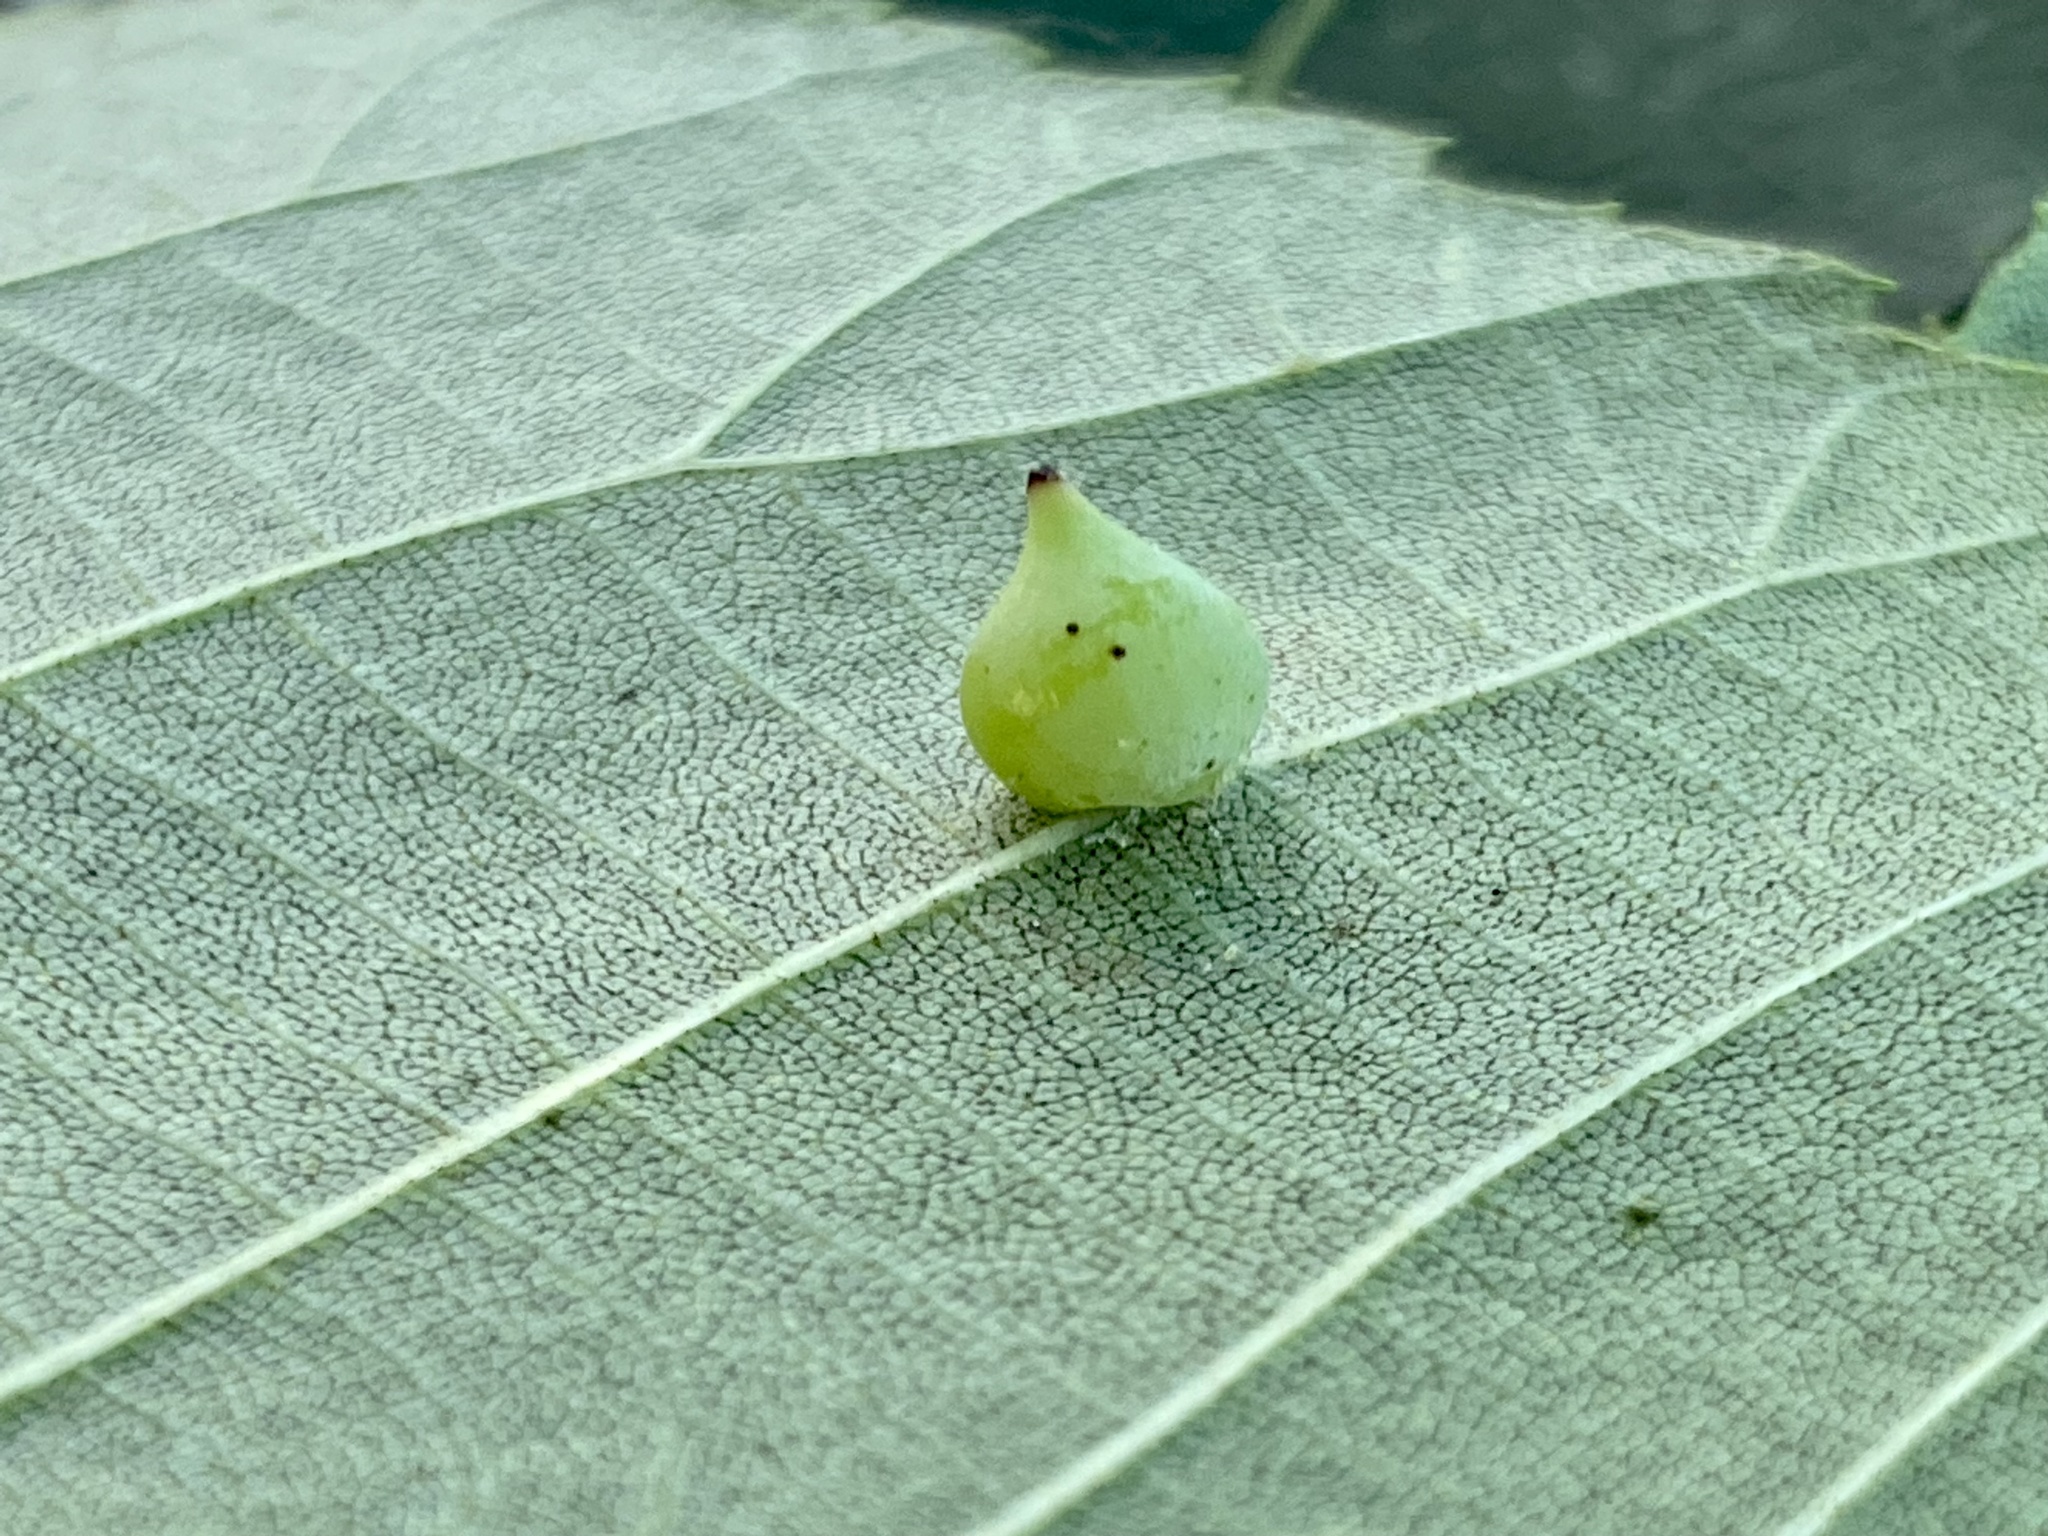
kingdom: Animalia
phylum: Arthropoda
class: Insecta
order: Diptera
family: Cecidomyiidae
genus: Caryomyia
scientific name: Caryomyia caryaecola
